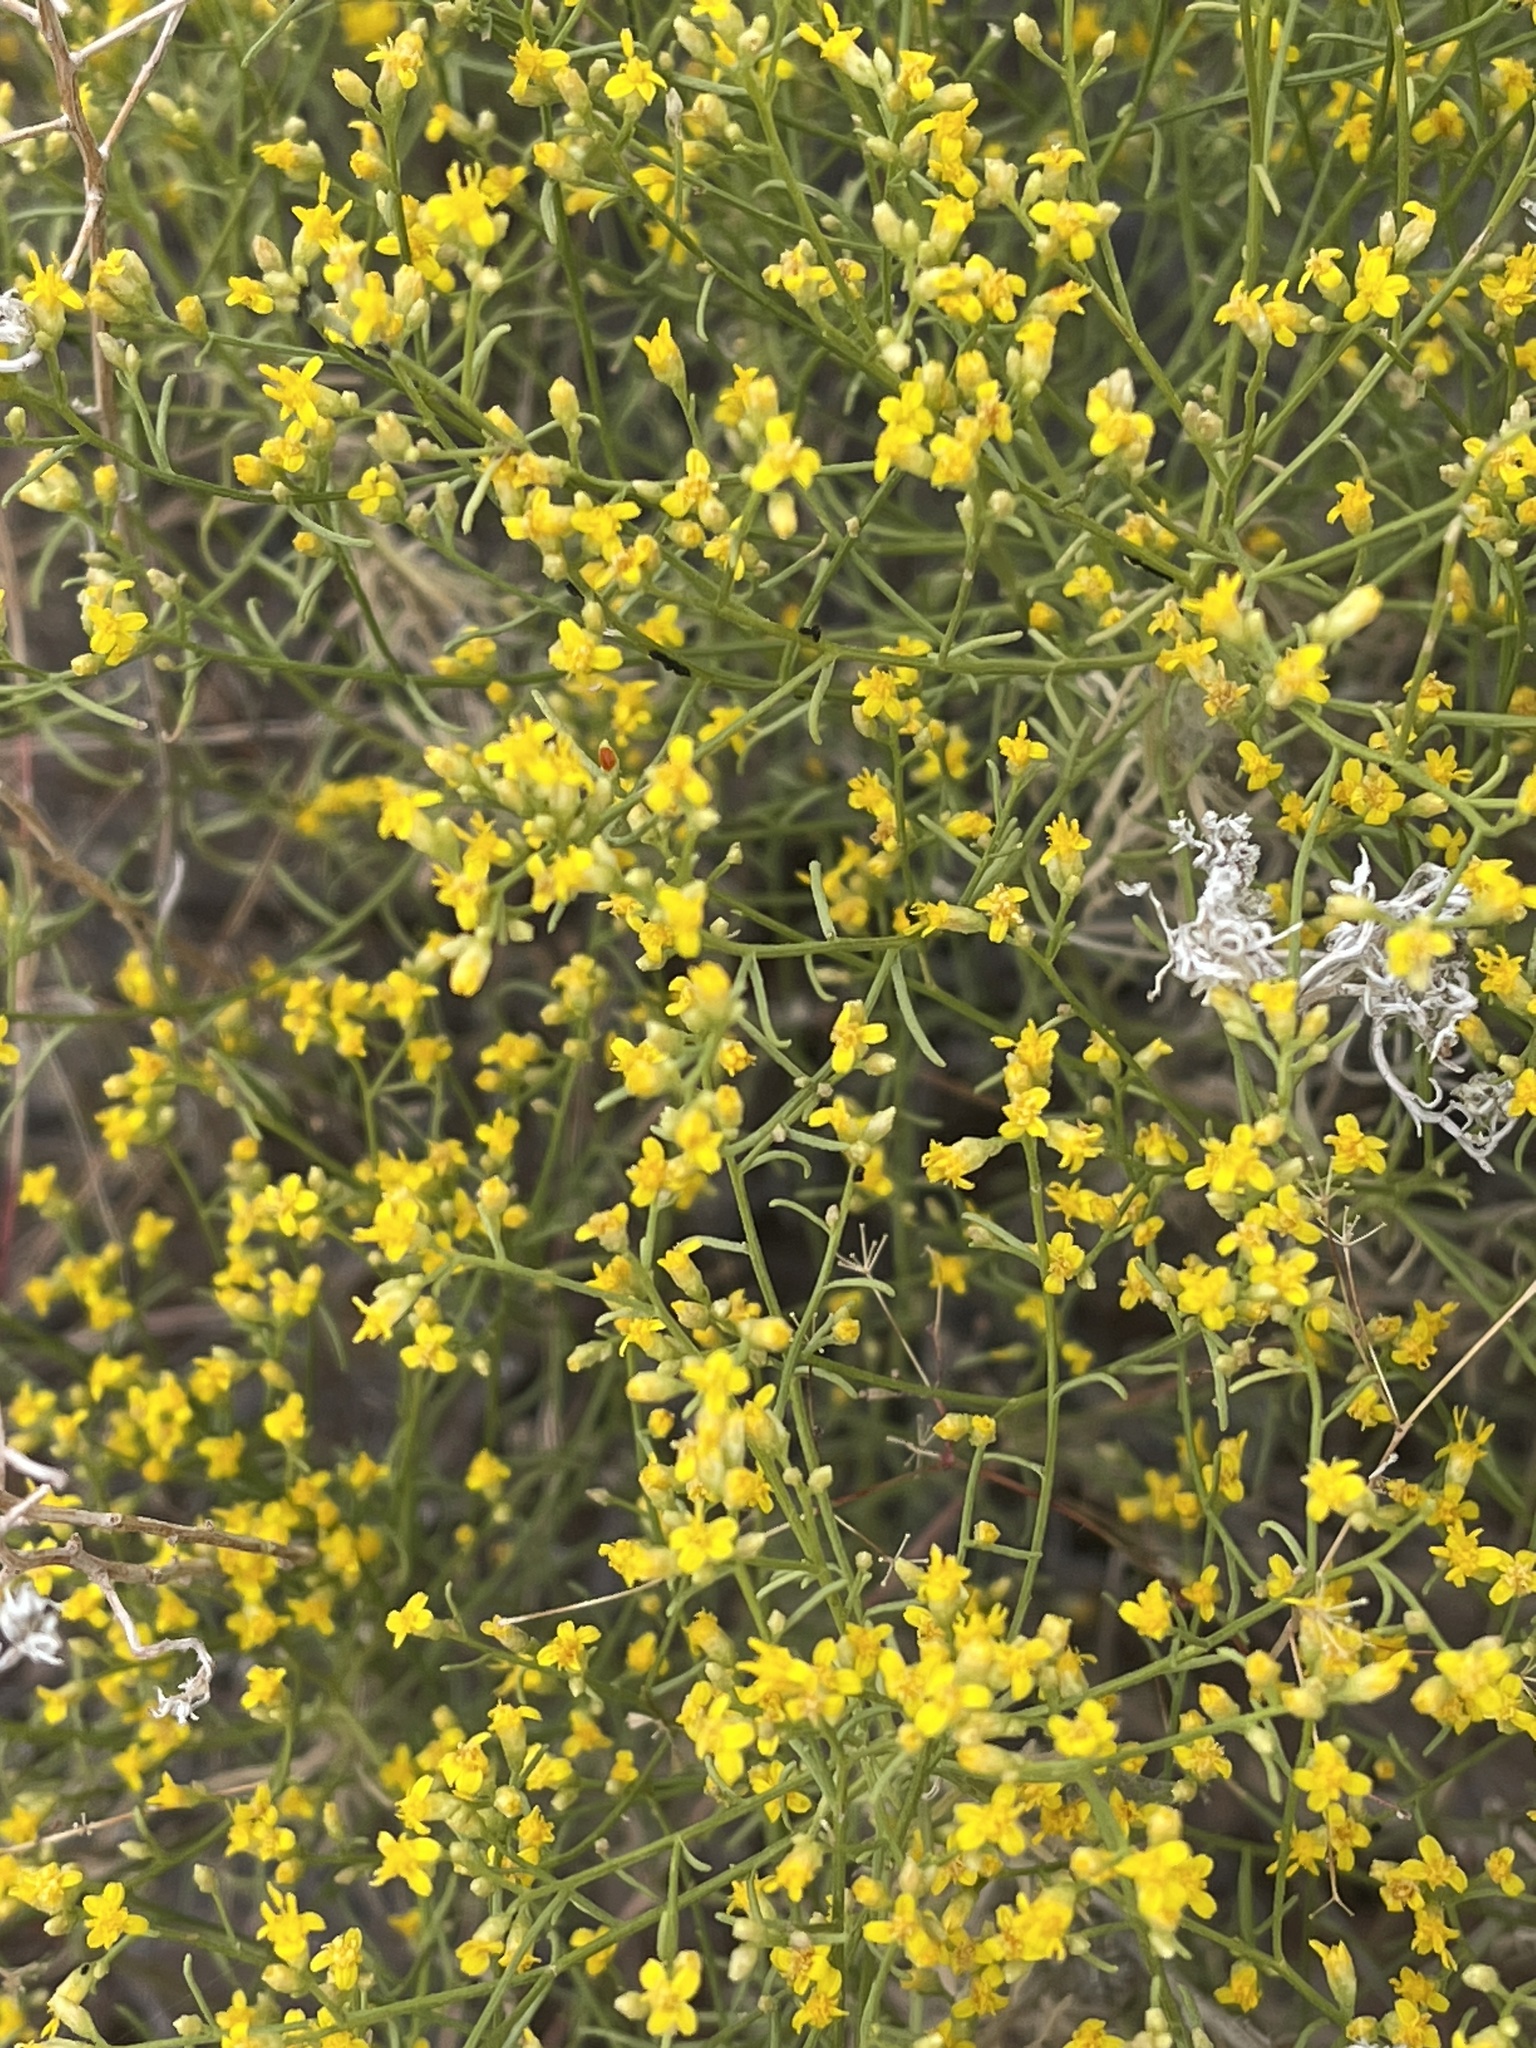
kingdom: Plantae
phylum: Tracheophyta
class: Magnoliopsida
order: Asterales
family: Asteraceae
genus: Gutierrezia
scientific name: Gutierrezia sarothrae
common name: Broom snakeweed
